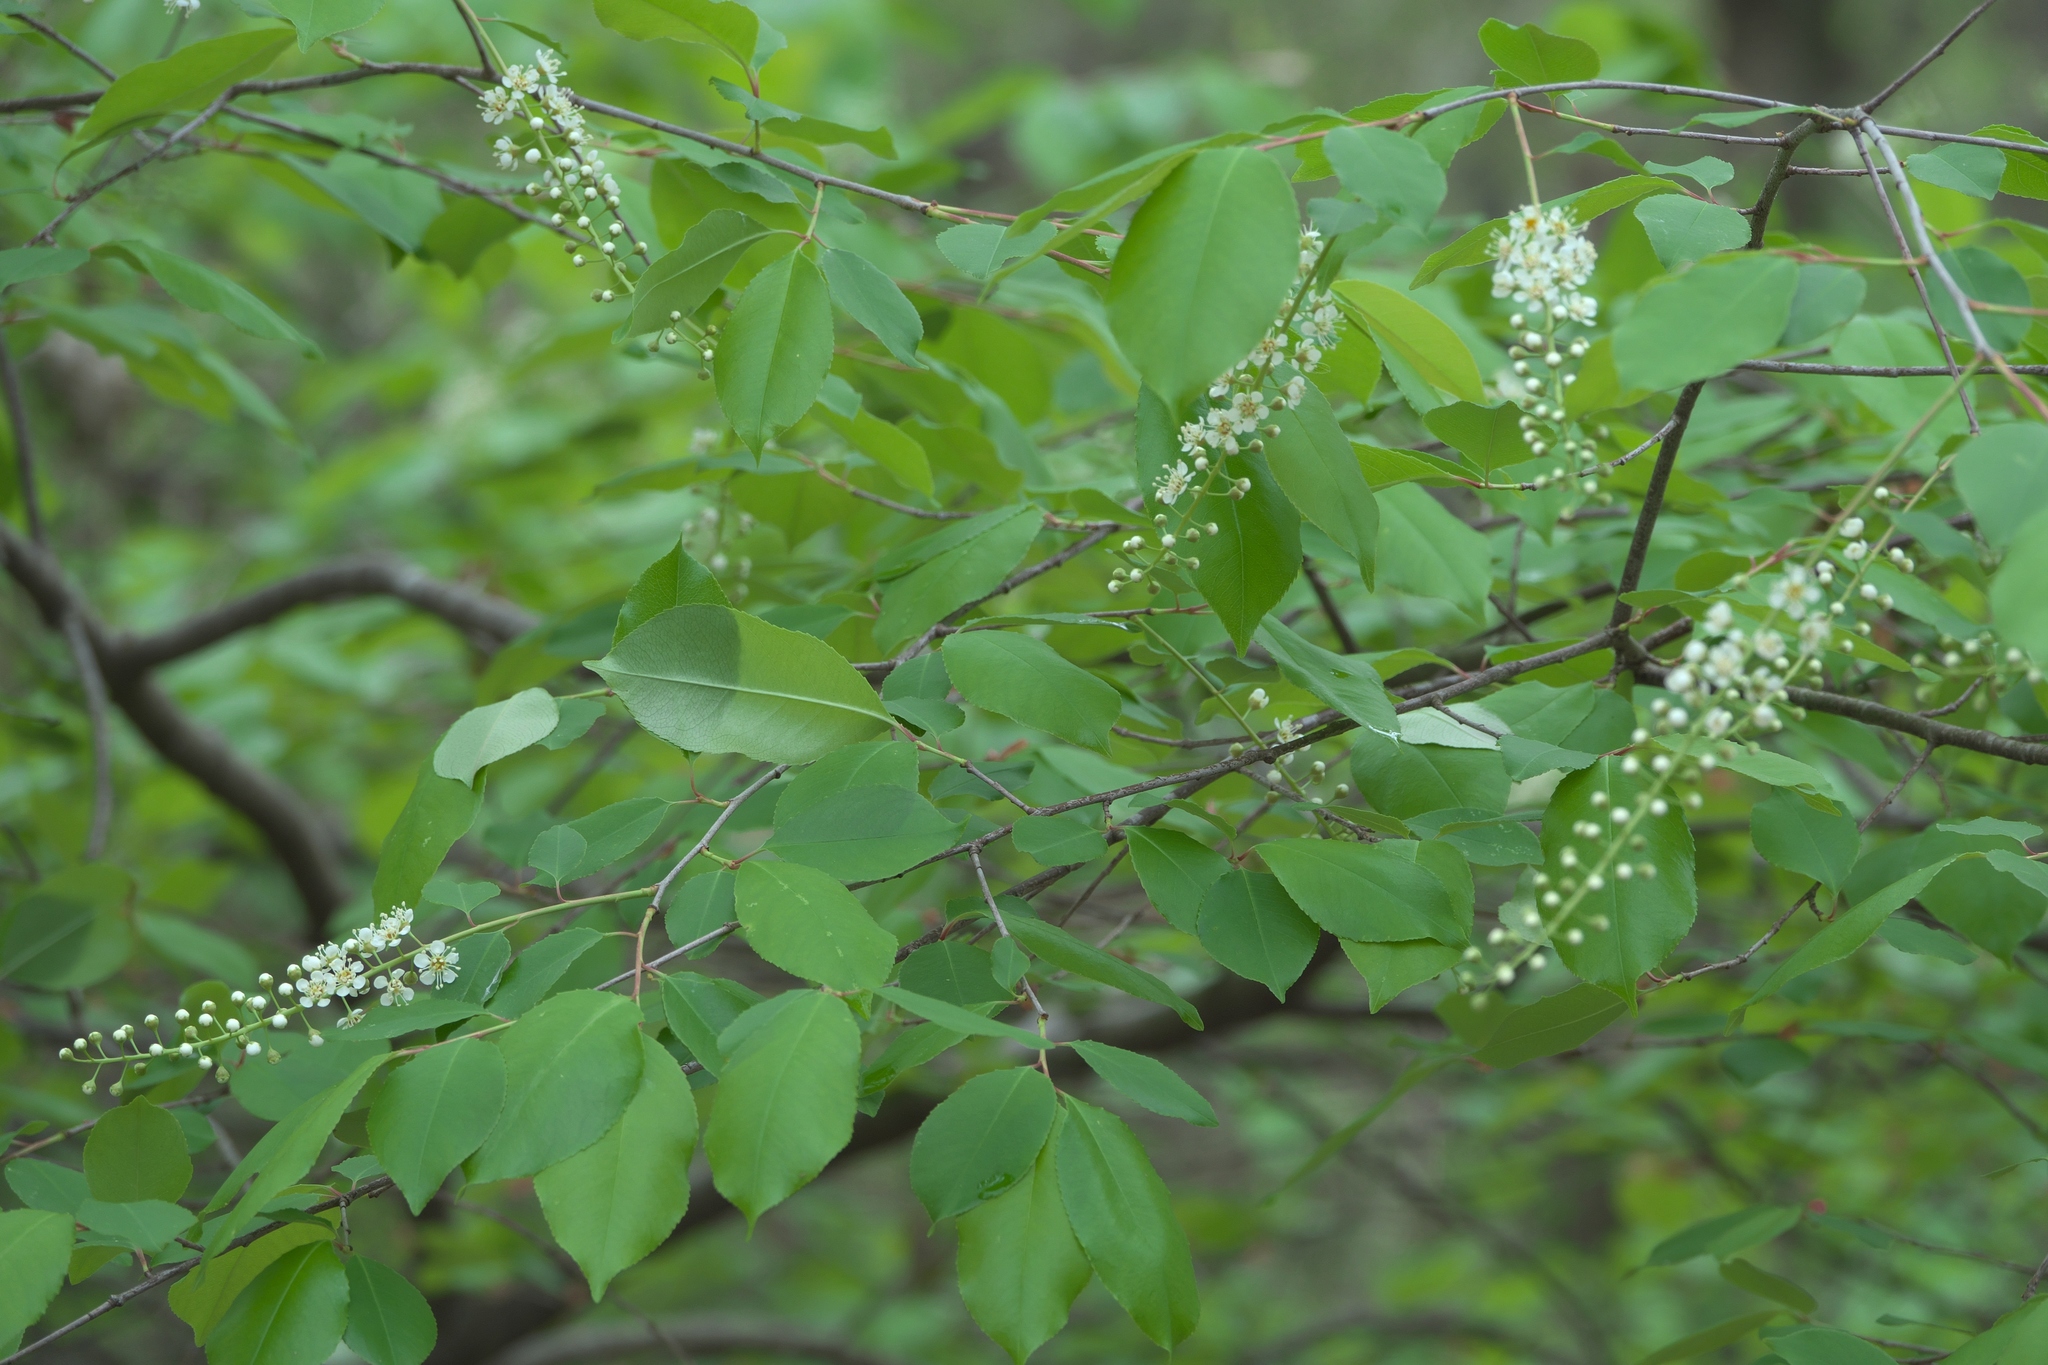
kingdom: Plantae
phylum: Tracheophyta
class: Magnoliopsida
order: Rosales
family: Rosaceae
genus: Prunus
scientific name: Prunus serotina
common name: Black cherry
